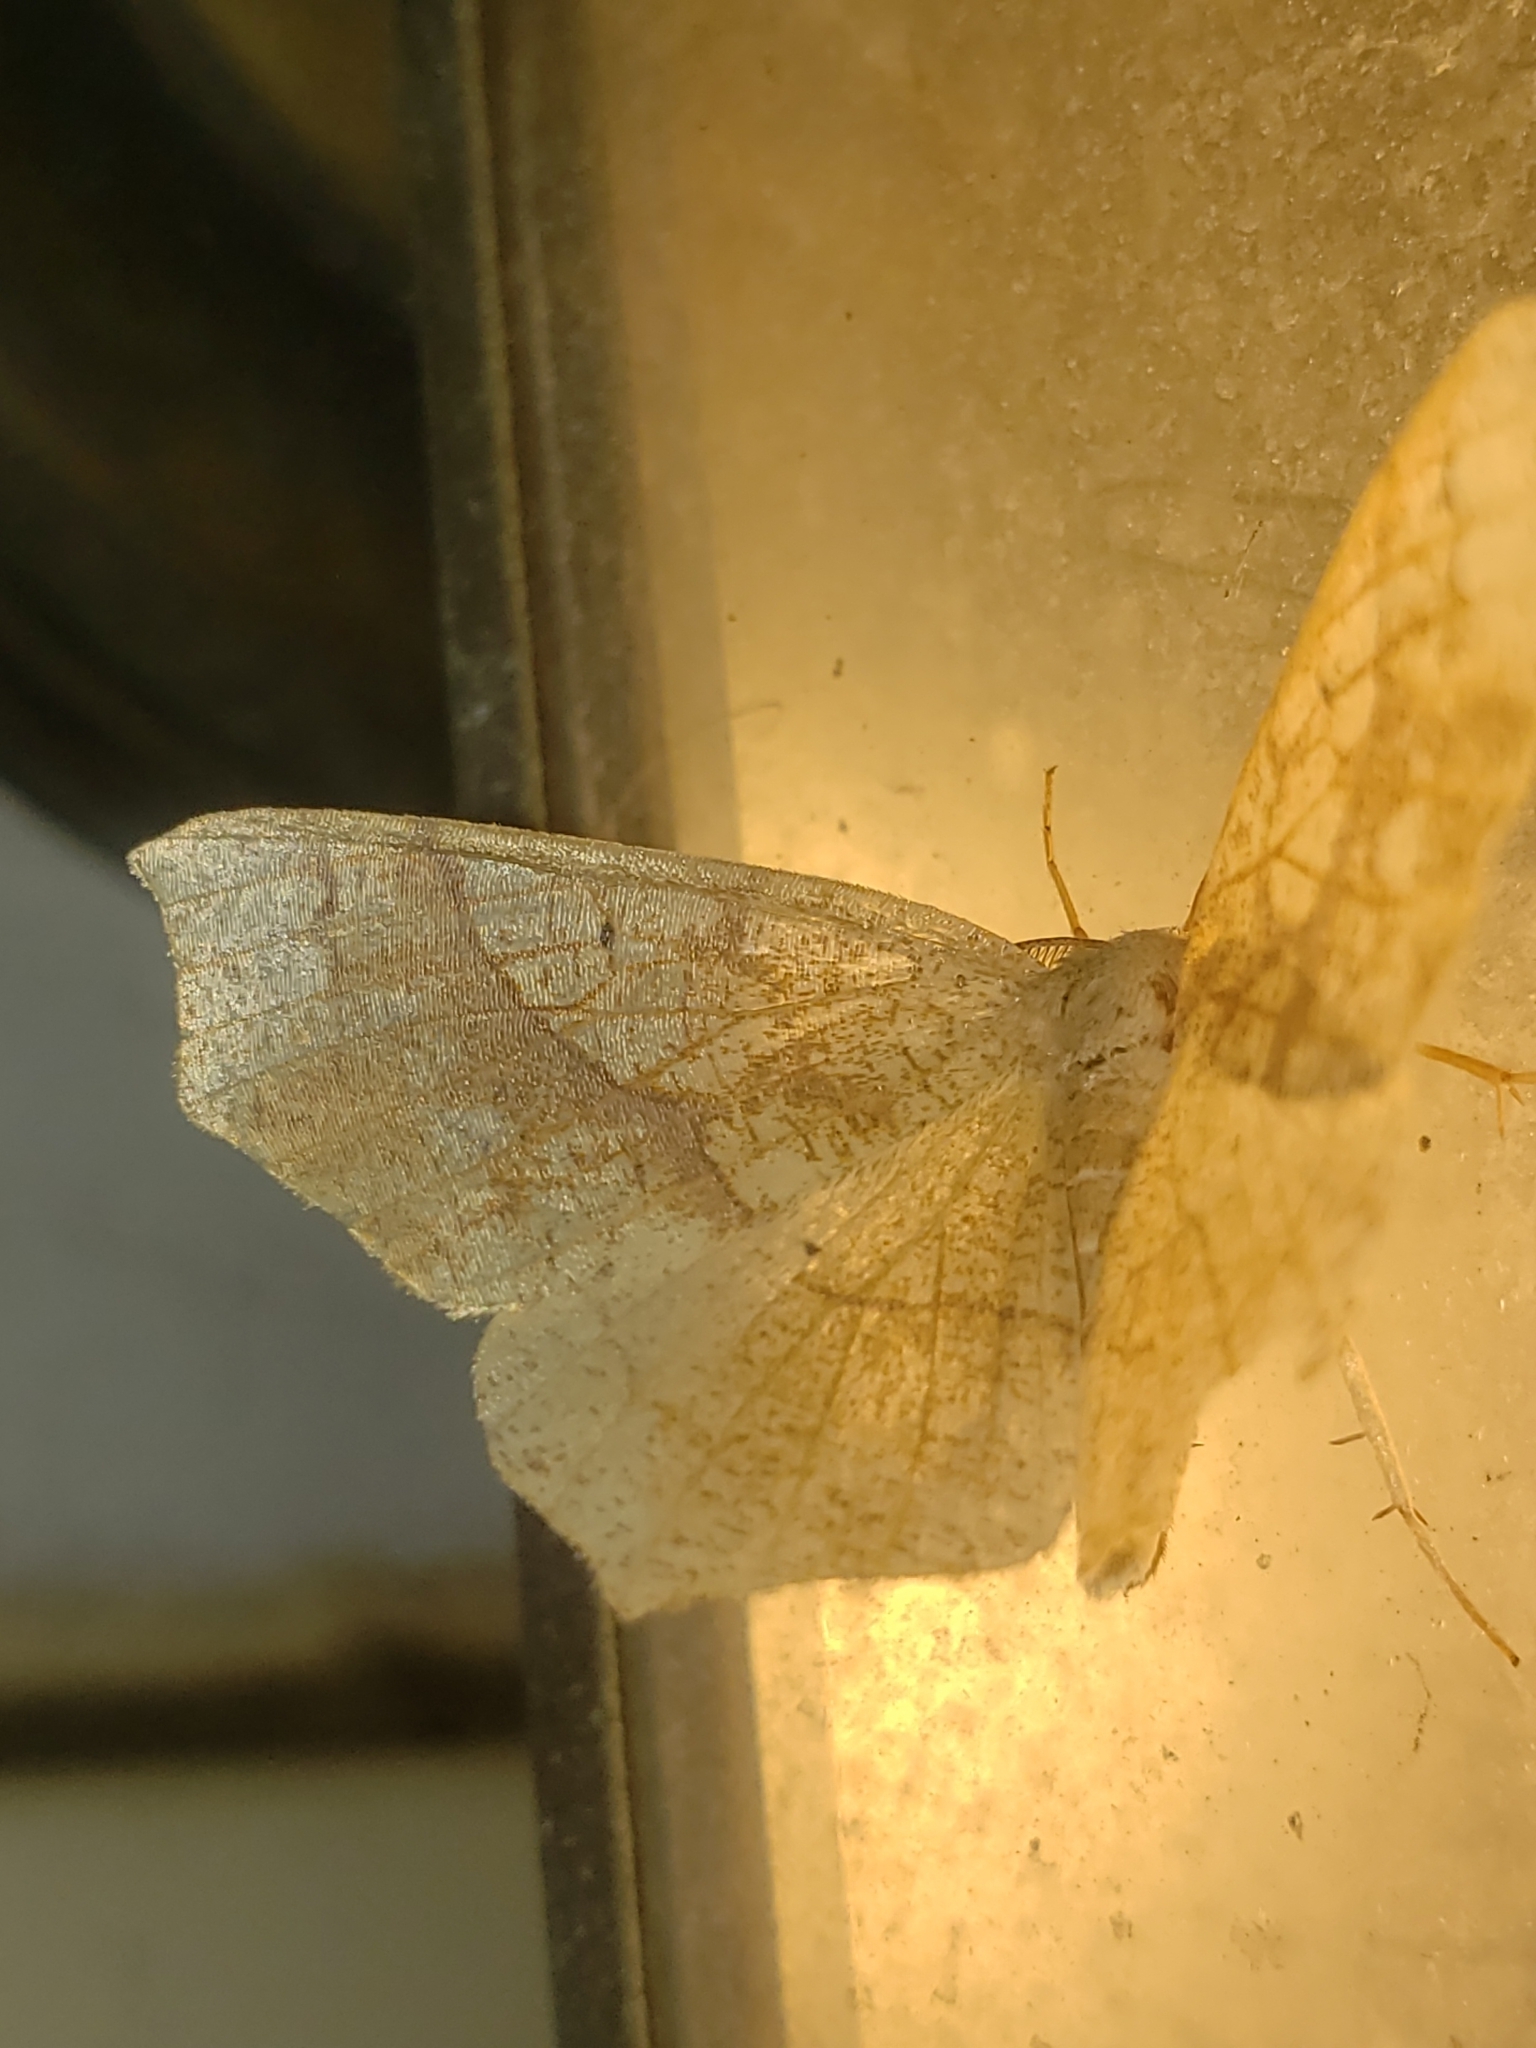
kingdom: Animalia
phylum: Arthropoda
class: Insecta
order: Lepidoptera
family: Geometridae
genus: Besma
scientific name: Besma quercivoraria
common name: Oak besma
